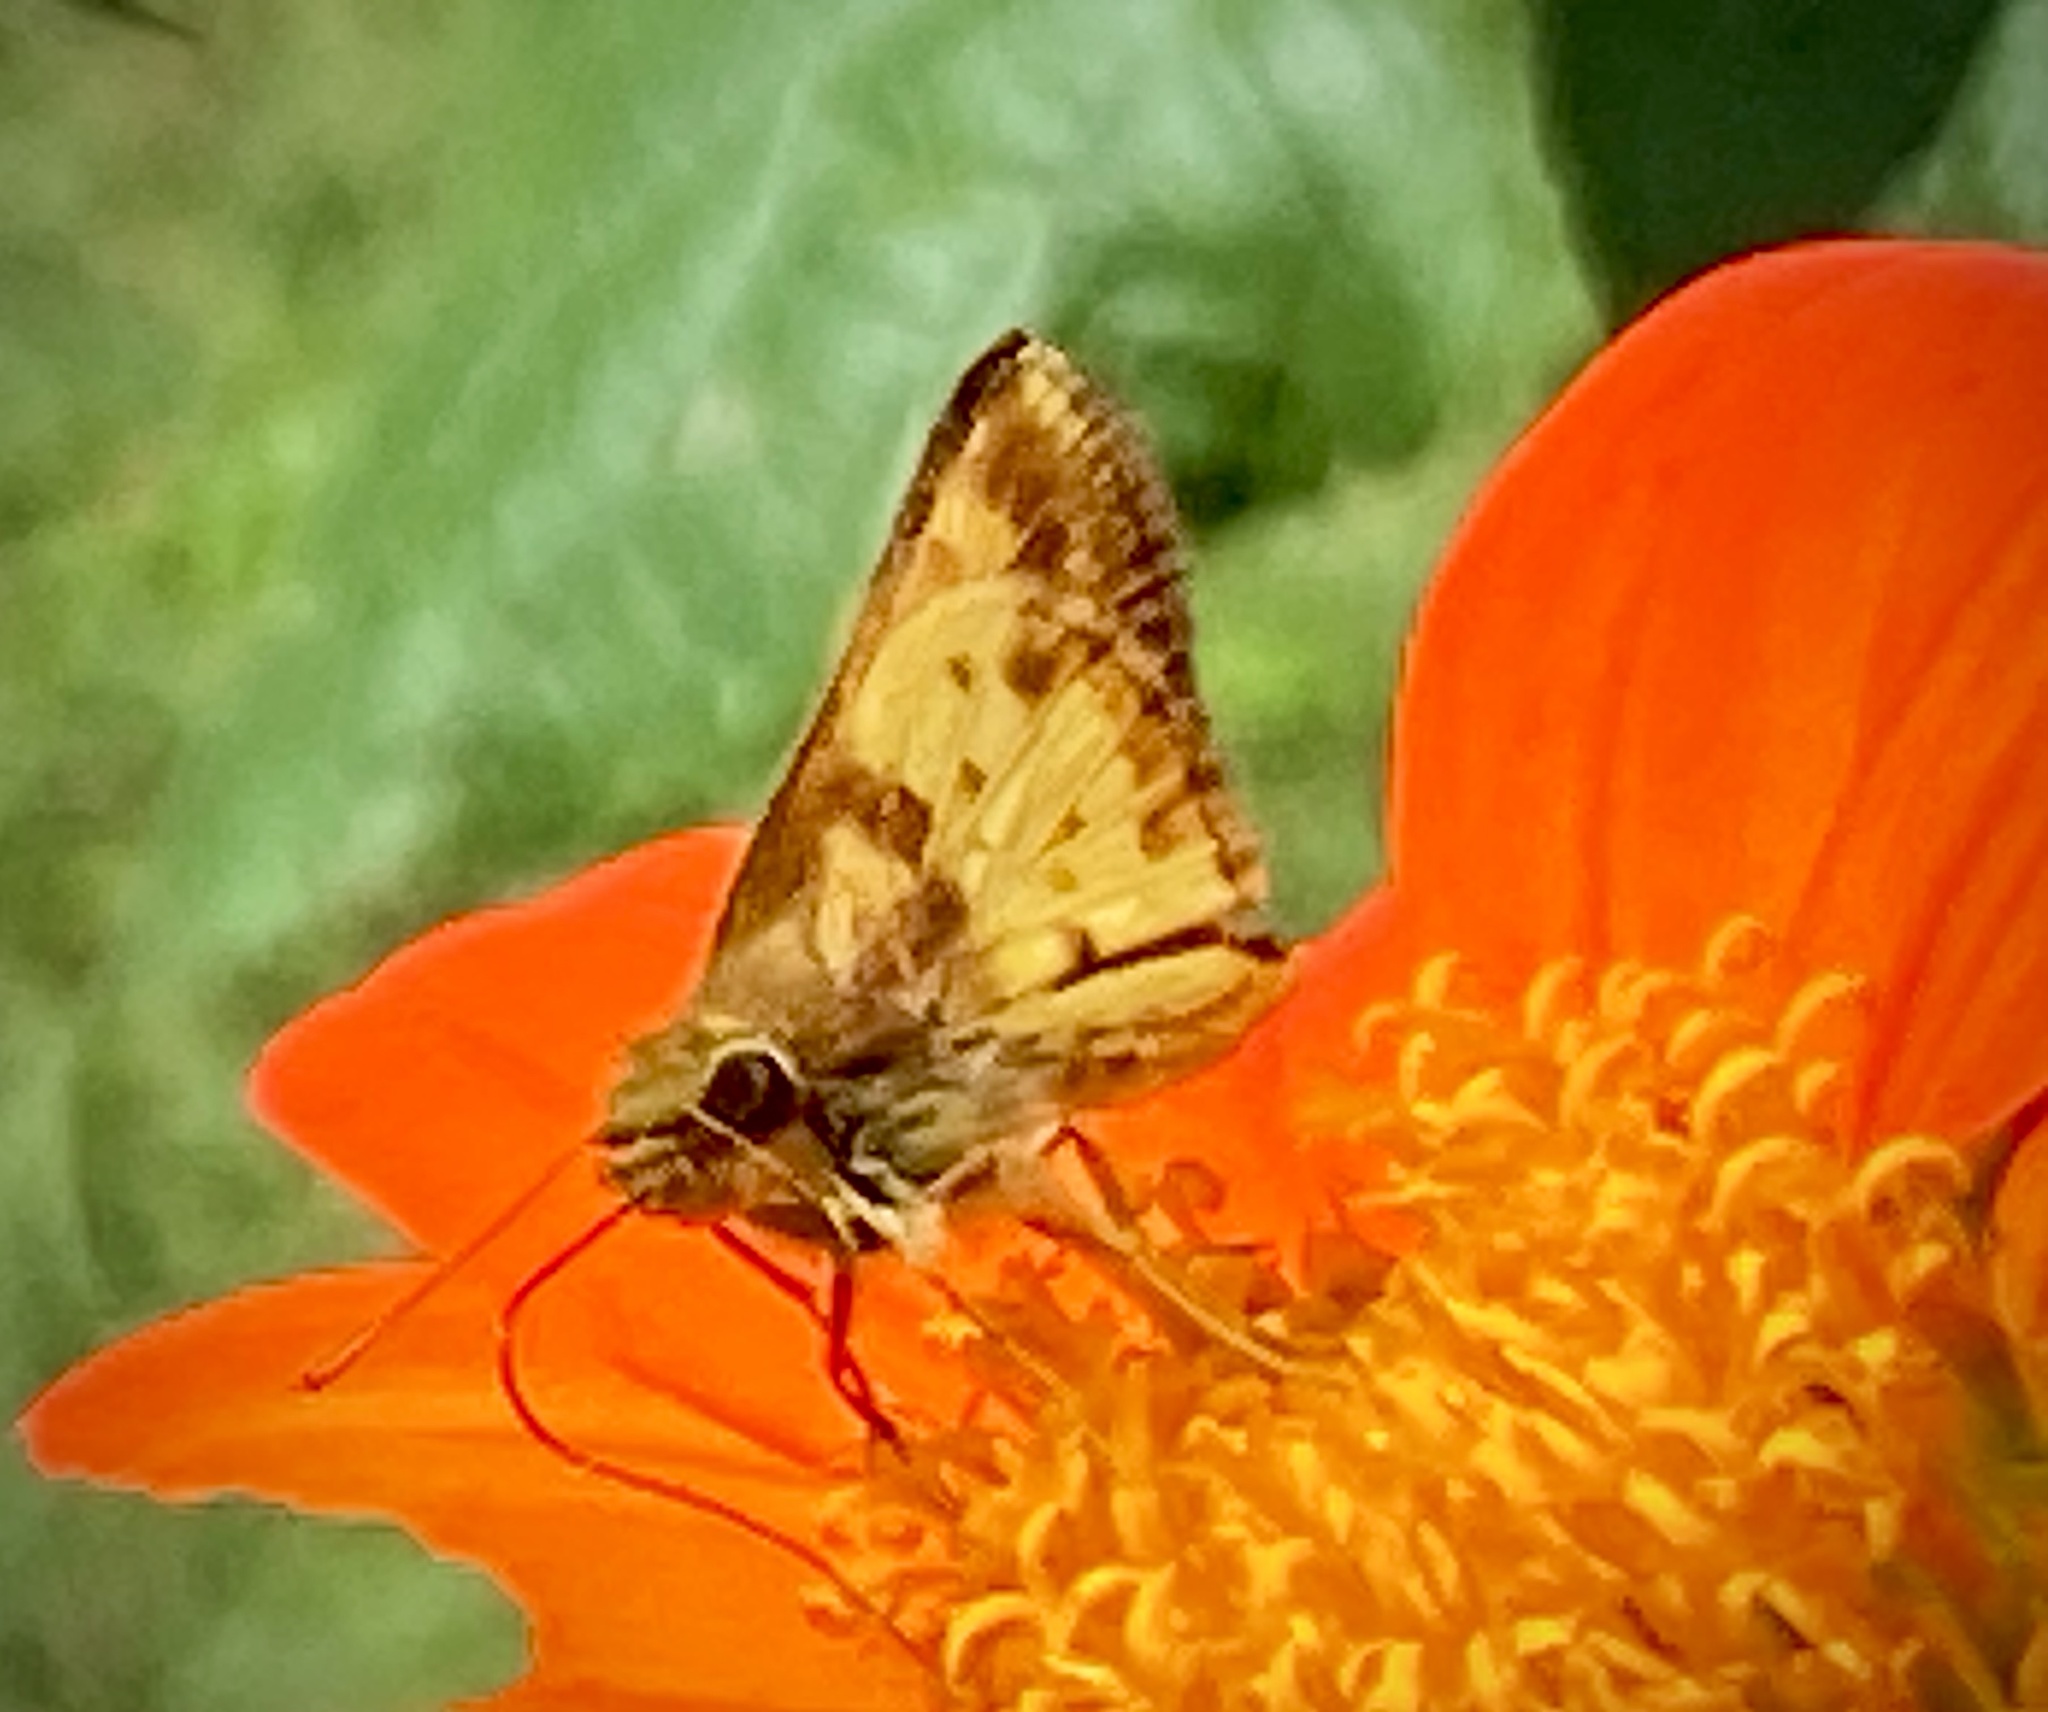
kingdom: Animalia
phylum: Arthropoda
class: Insecta
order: Lepidoptera
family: Hesperiidae
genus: Lon
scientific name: Lon zabulon
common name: Zabulon skipper
